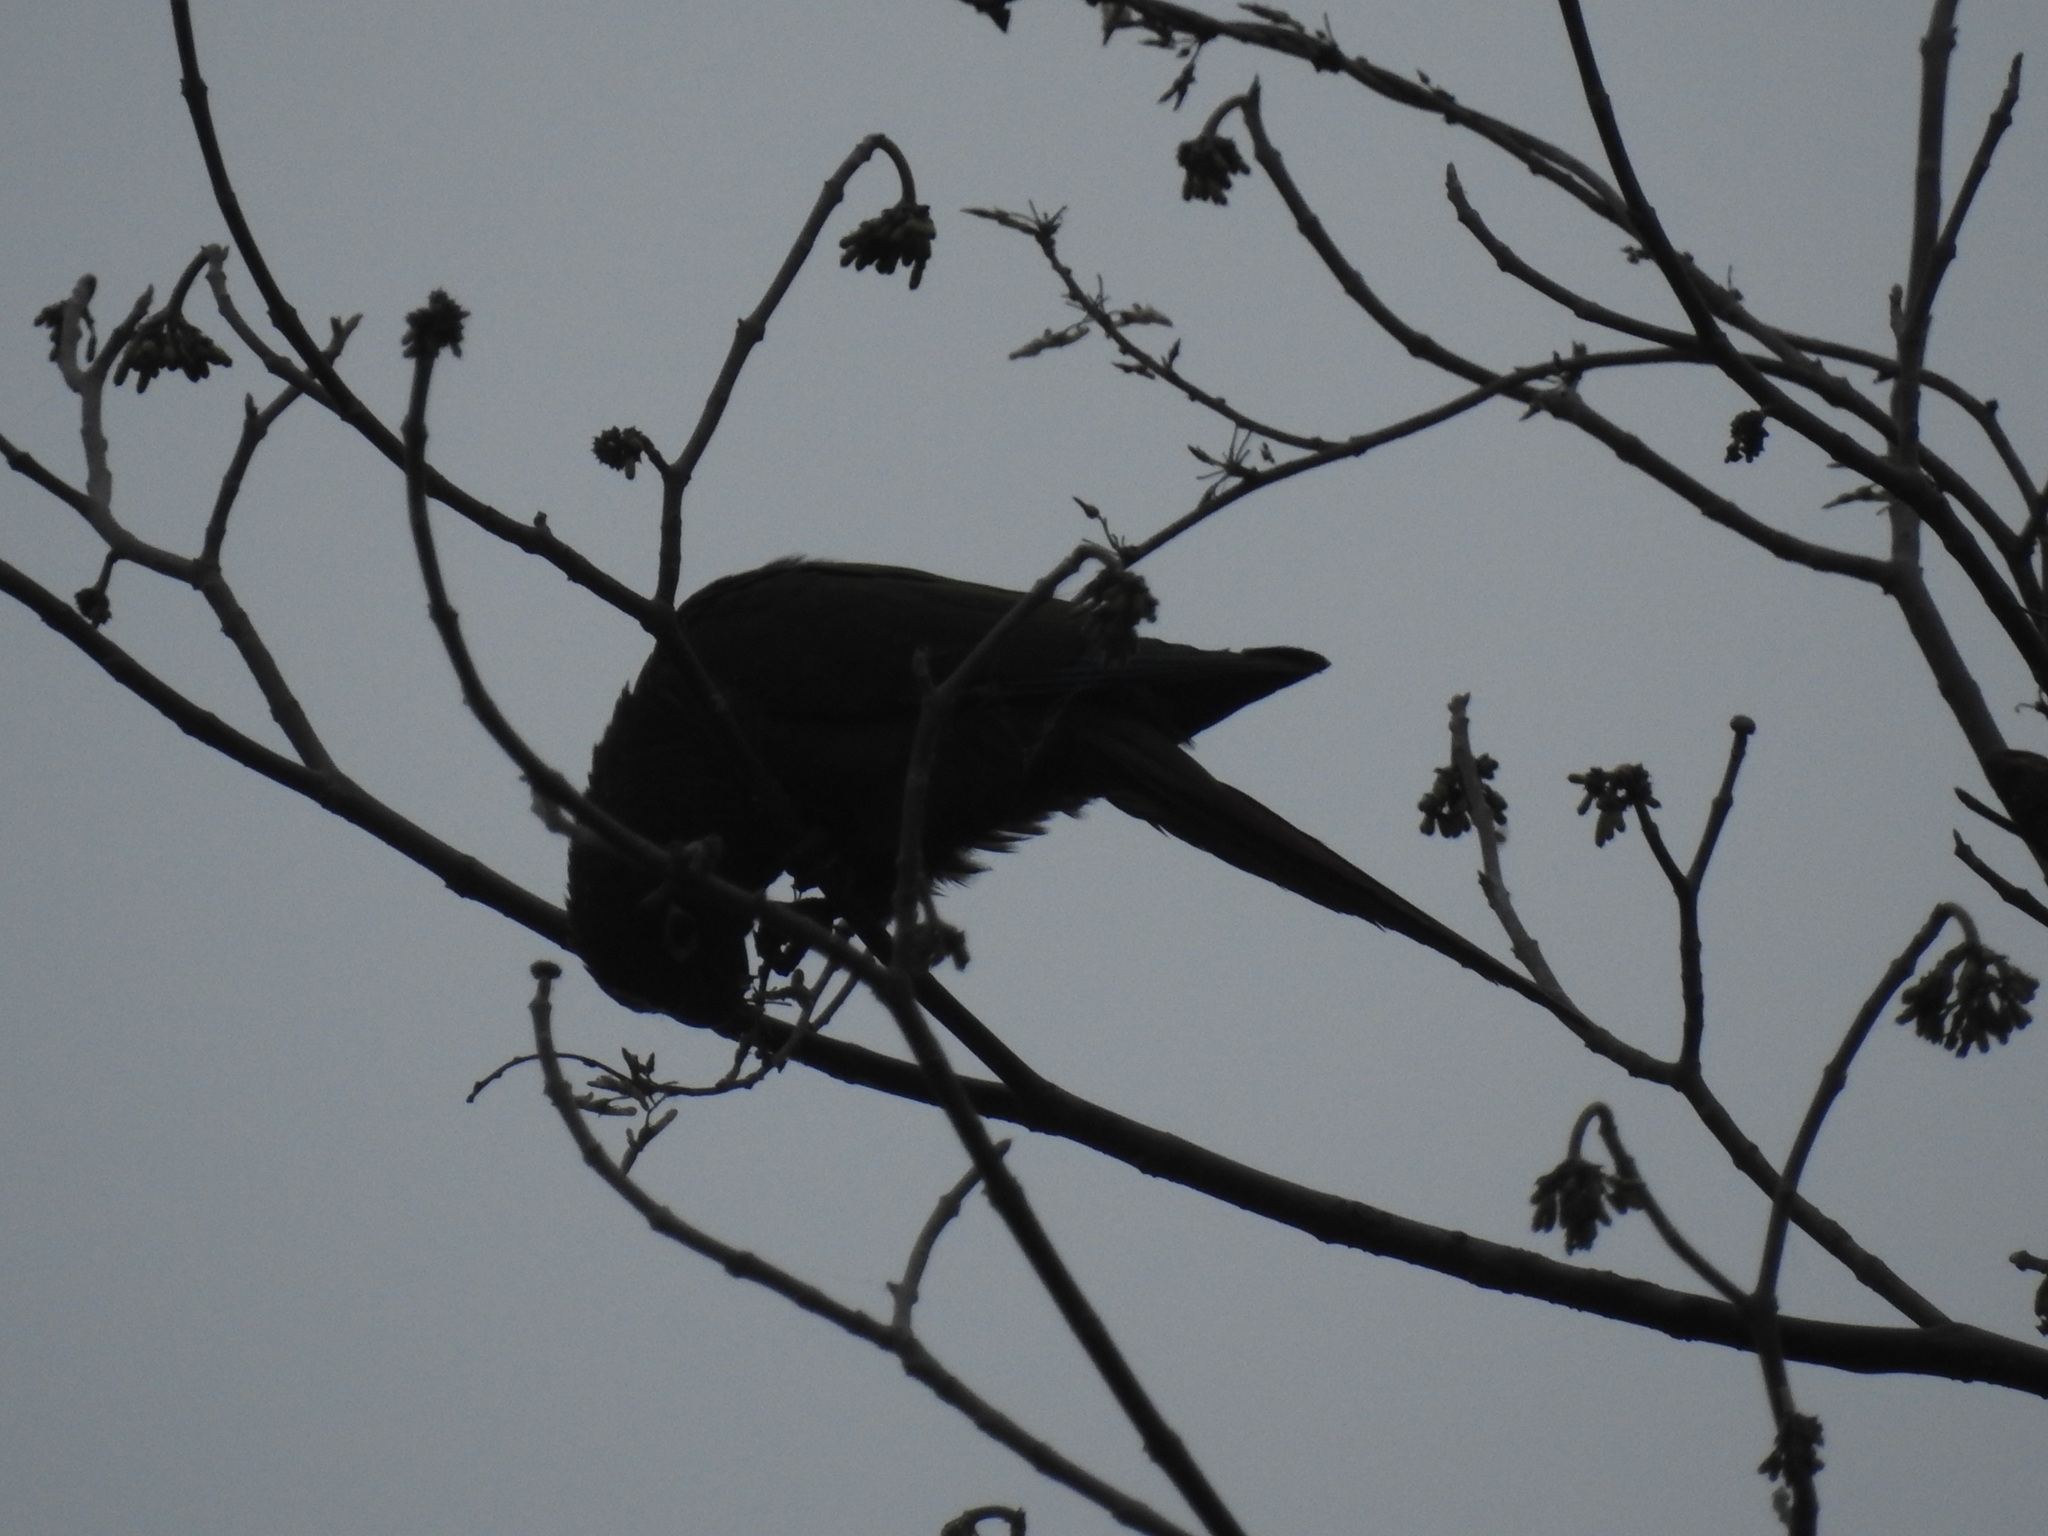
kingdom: Animalia
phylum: Chordata
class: Aves
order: Psittaciformes
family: Psittacidae
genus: Pyrrhura
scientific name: Pyrrhura molinae
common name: Green-cheeked parakeet
